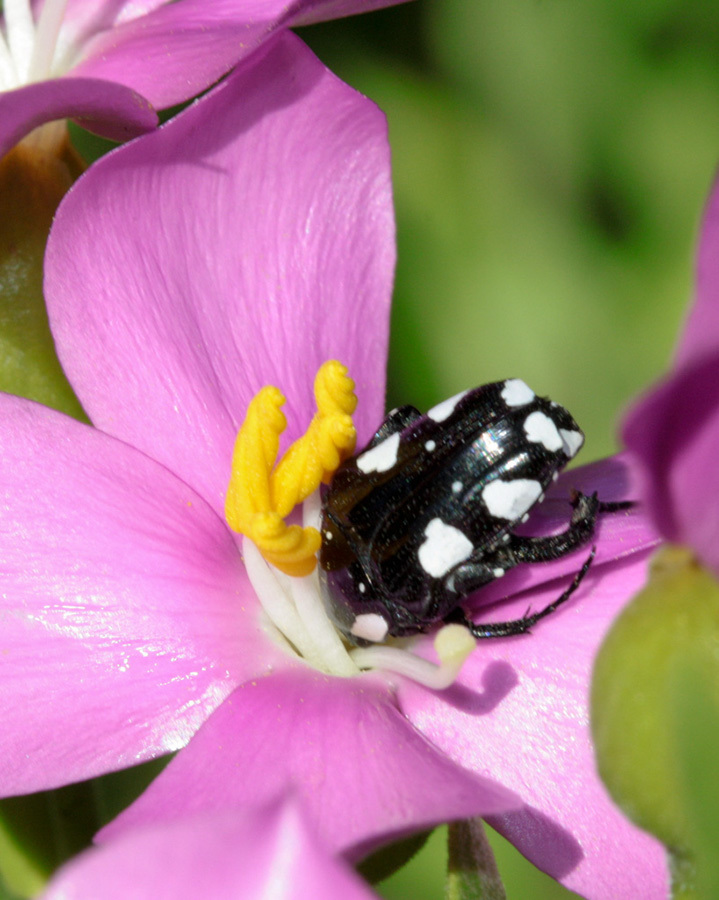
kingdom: Animalia
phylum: Arthropoda
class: Insecta
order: Coleoptera
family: Scarabaeidae
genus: Mausoleopsis
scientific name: Mausoleopsis amabilis
